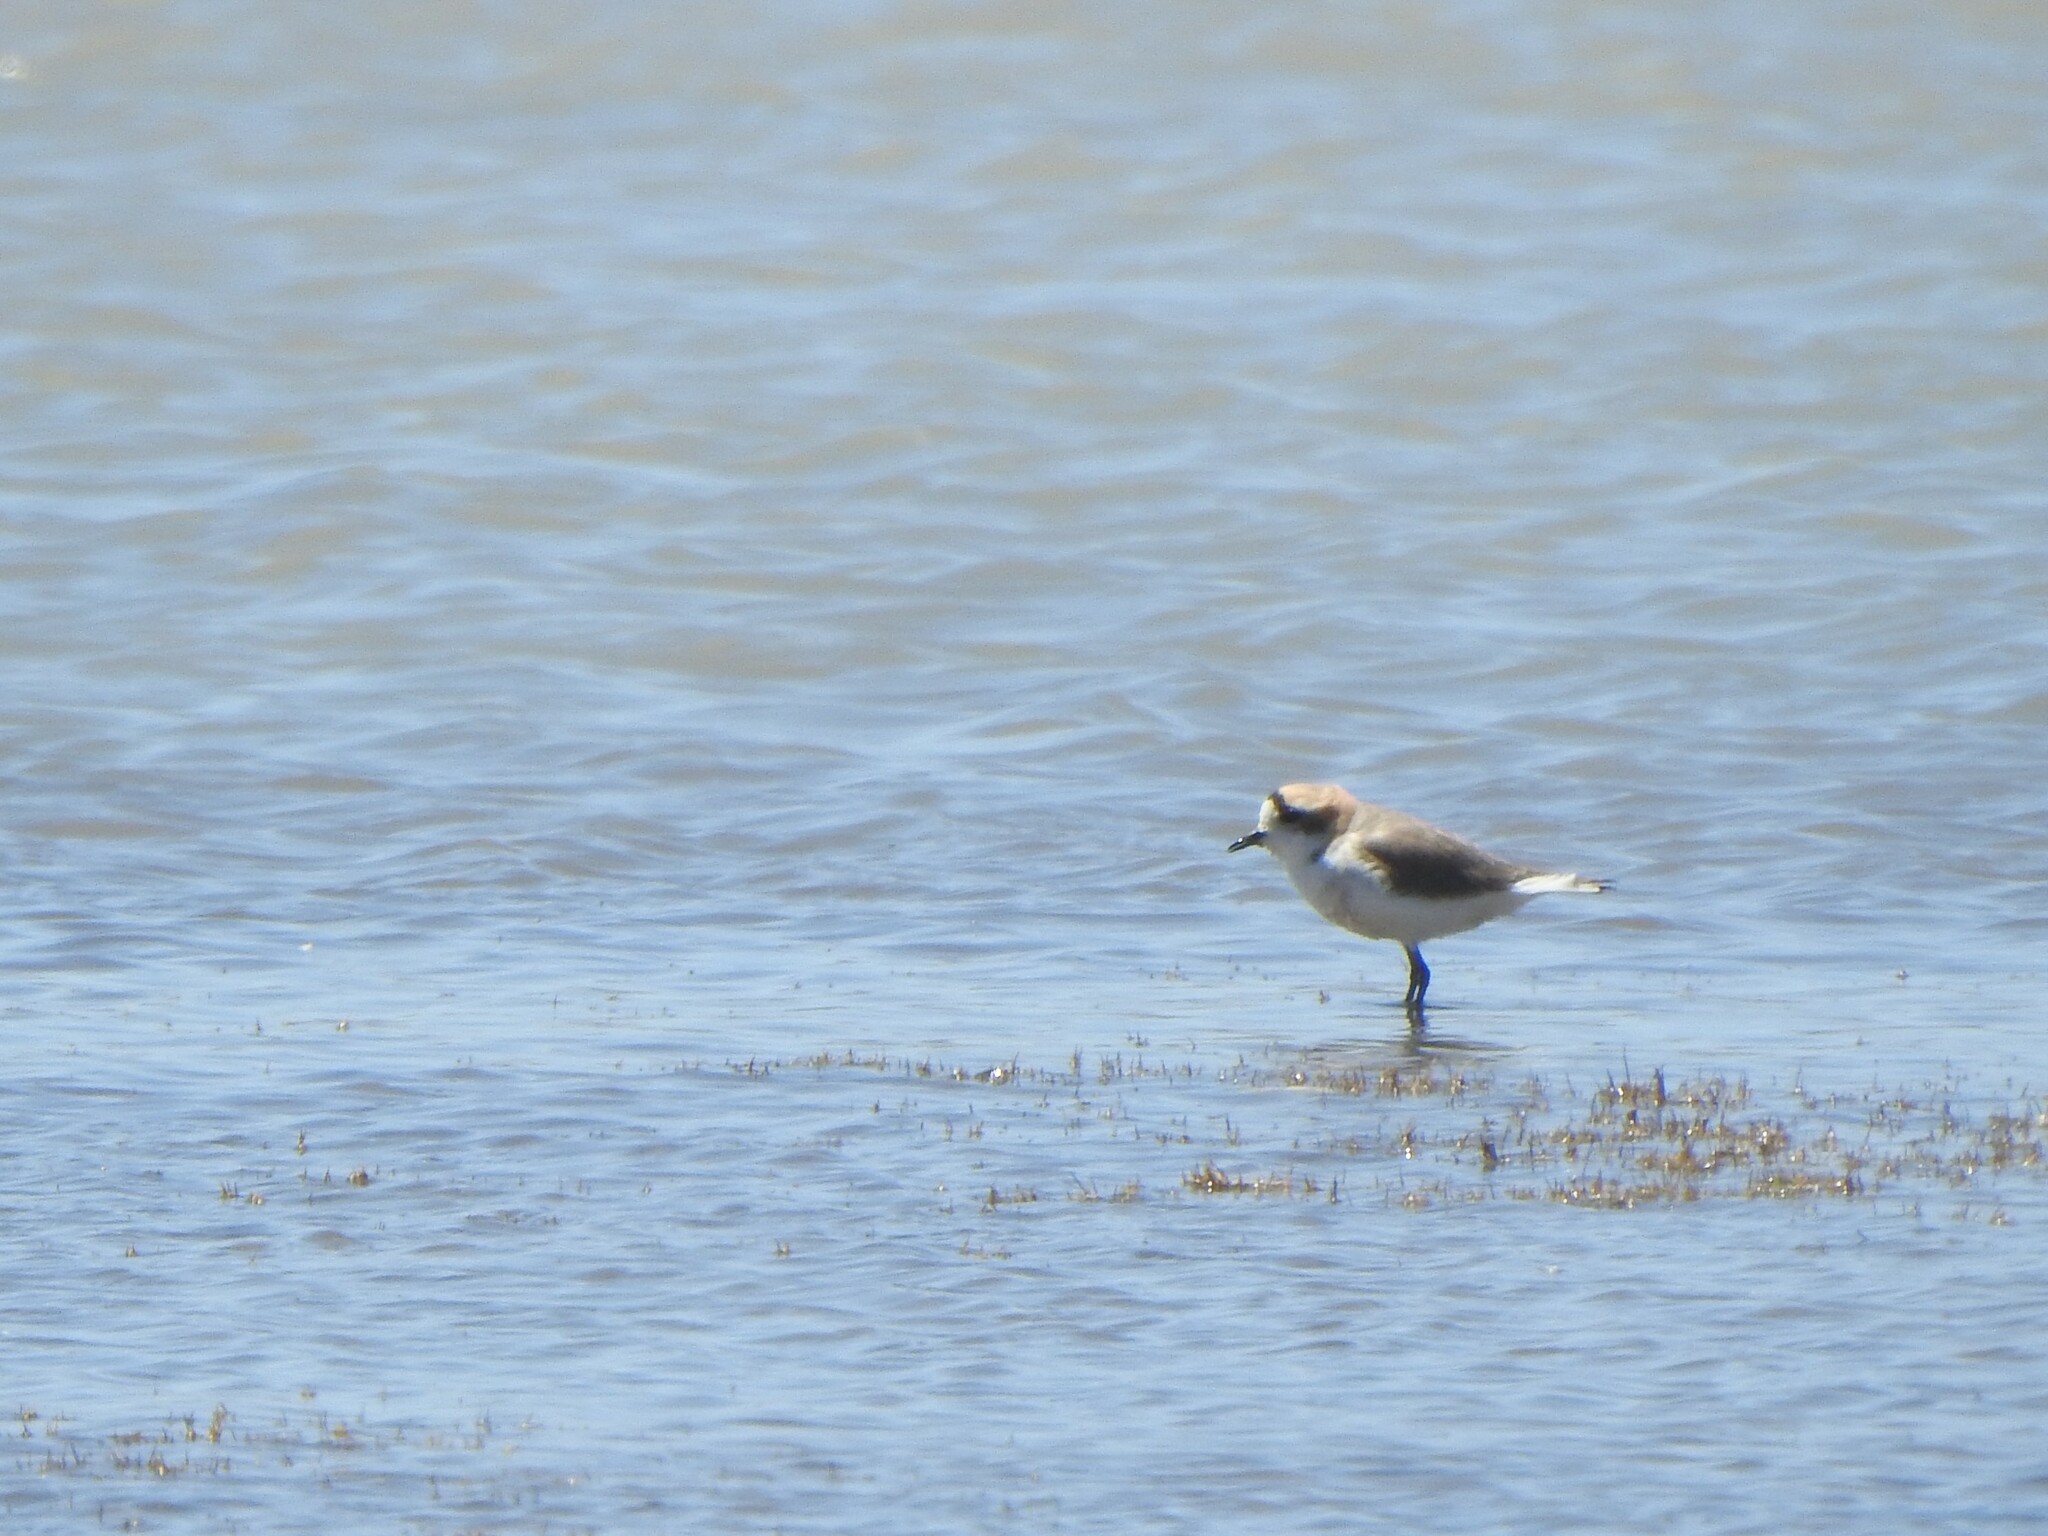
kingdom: Animalia
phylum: Chordata
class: Aves
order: Charadriiformes
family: Charadriidae
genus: Anarhynchus
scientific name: Anarhynchus
